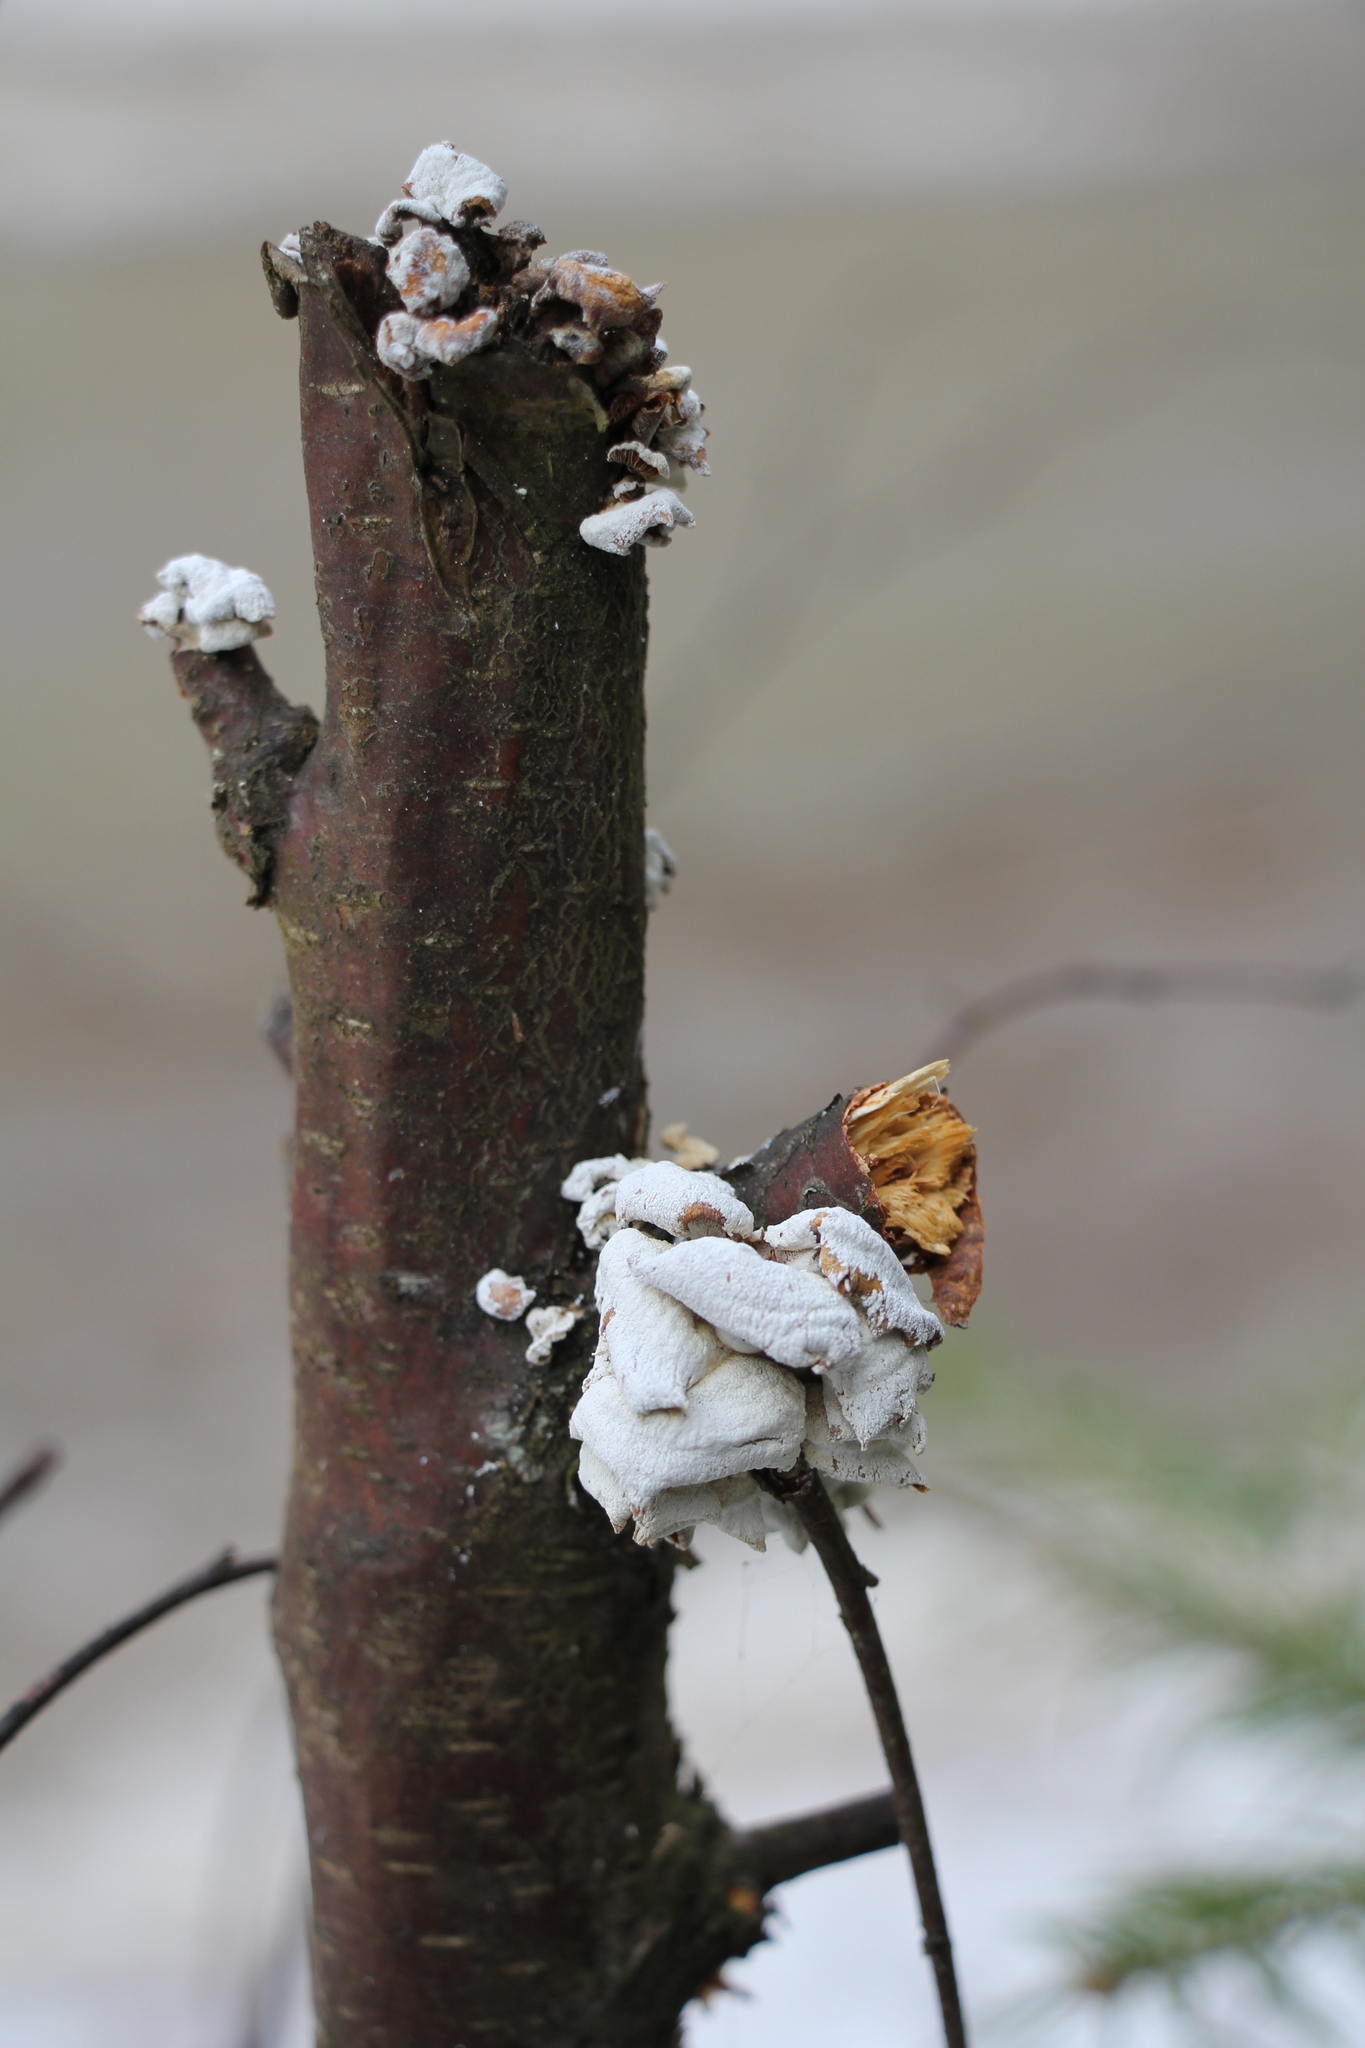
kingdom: Fungi
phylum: Basidiomycota
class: Agaricomycetes
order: Agaricales
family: Mycenaceae
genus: Panellus
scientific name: Panellus stipticus
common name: Bitter oysterling
